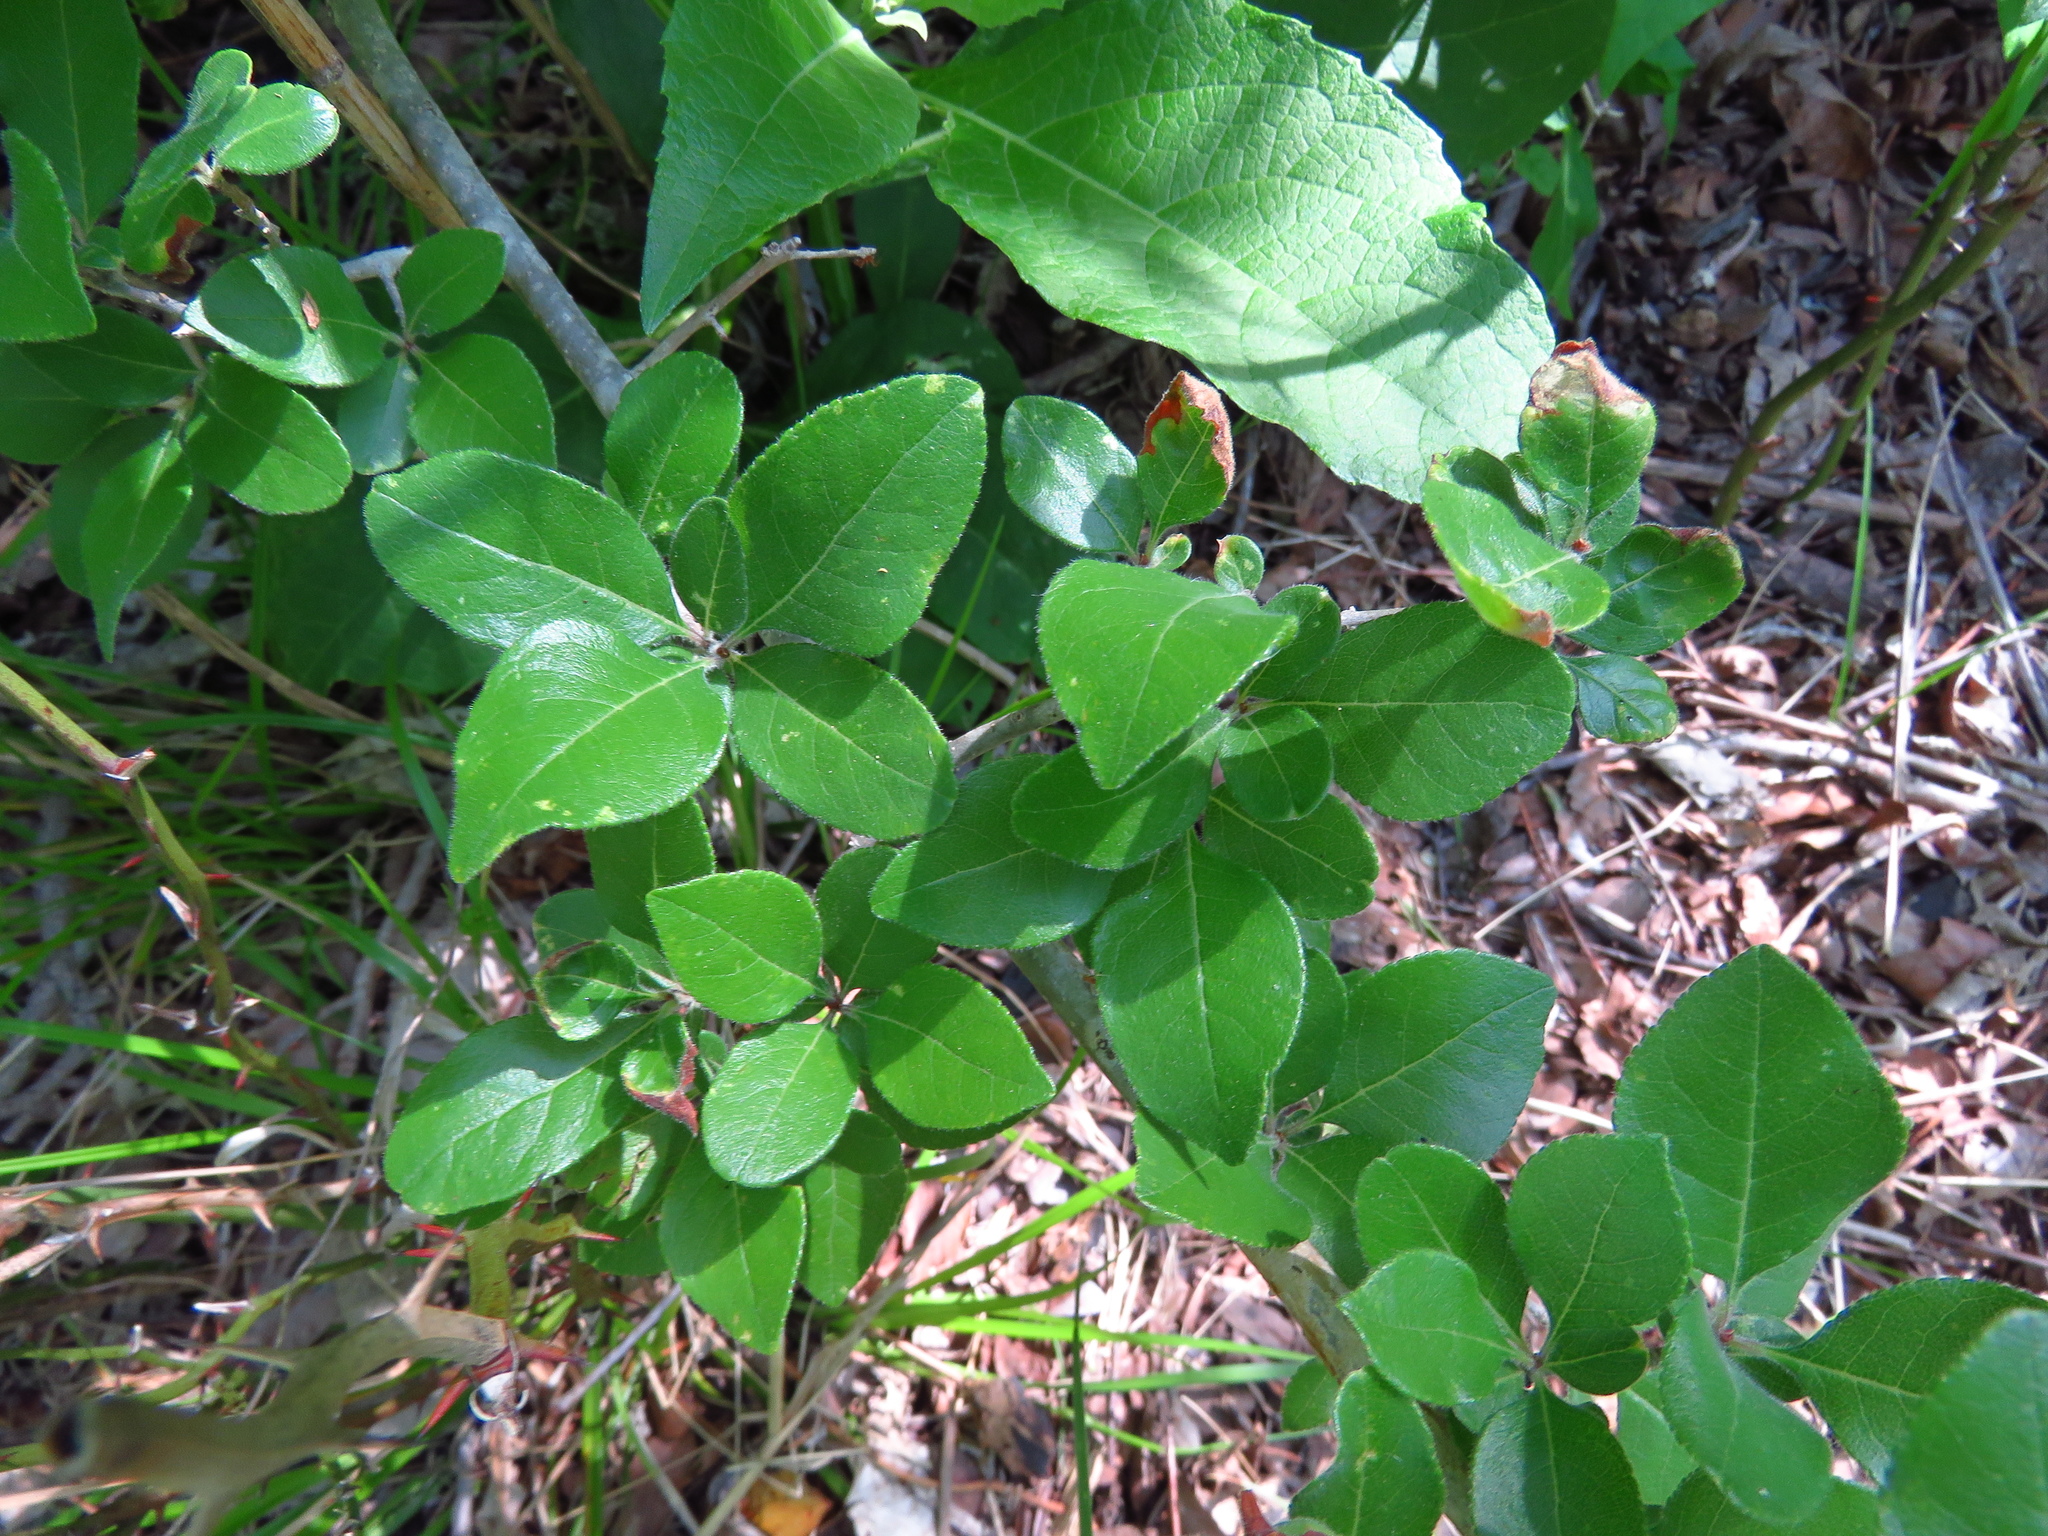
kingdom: Plantae
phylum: Tracheophyta
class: Magnoliopsida
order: Lamiales
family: Oleaceae
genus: Forestiera
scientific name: Forestiera pubescens
